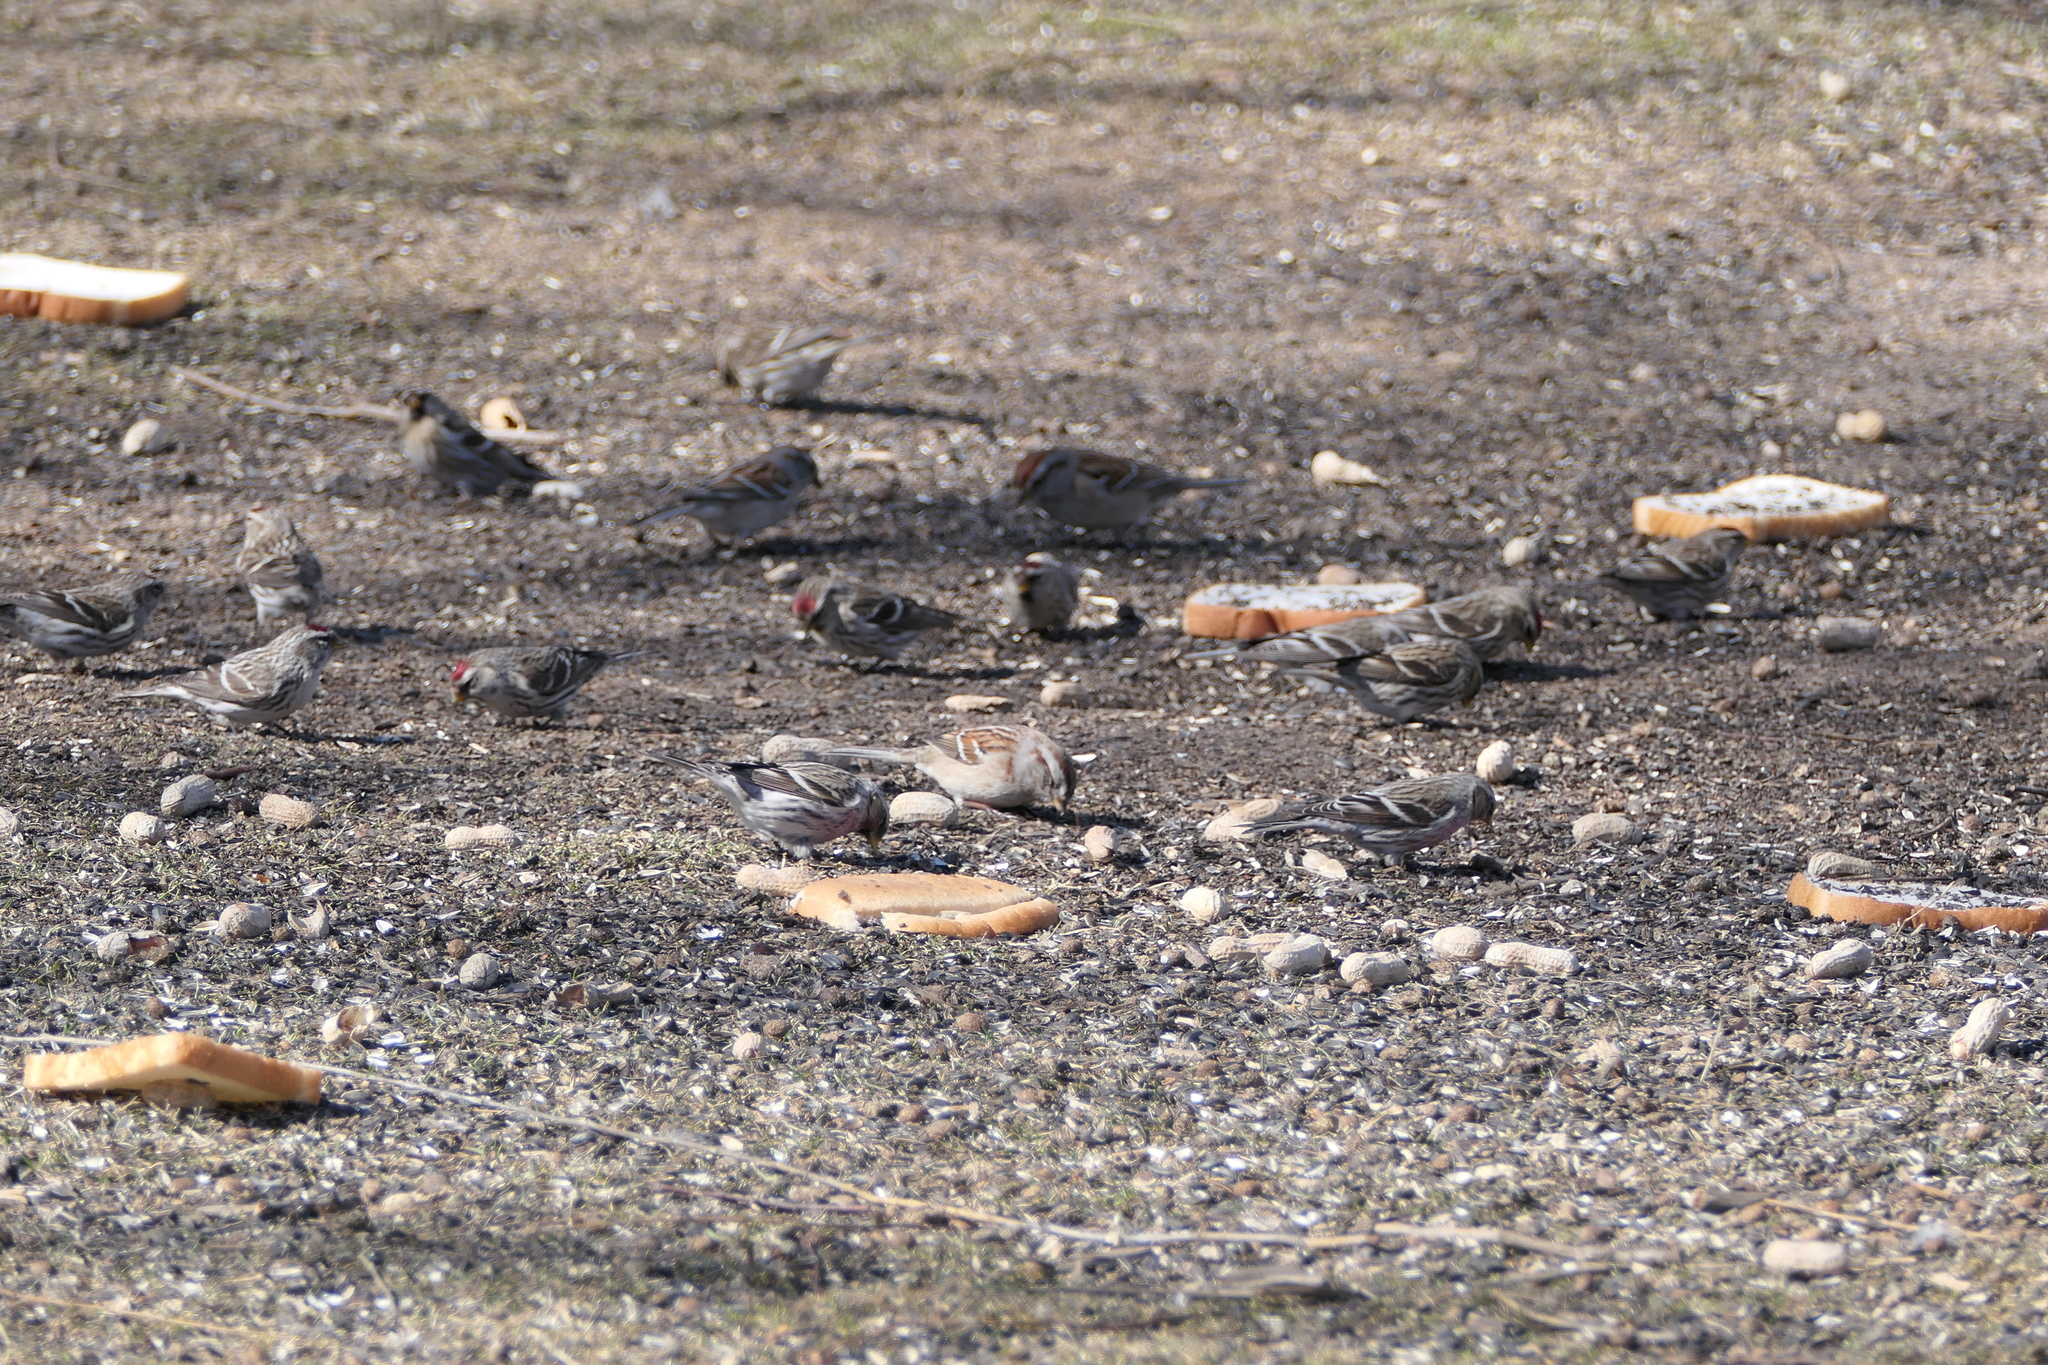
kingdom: Animalia
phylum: Chordata
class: Aves
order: Passeriformes
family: Fringillidae
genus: Acanthis
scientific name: Acanthis flammea
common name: Common redpoll
